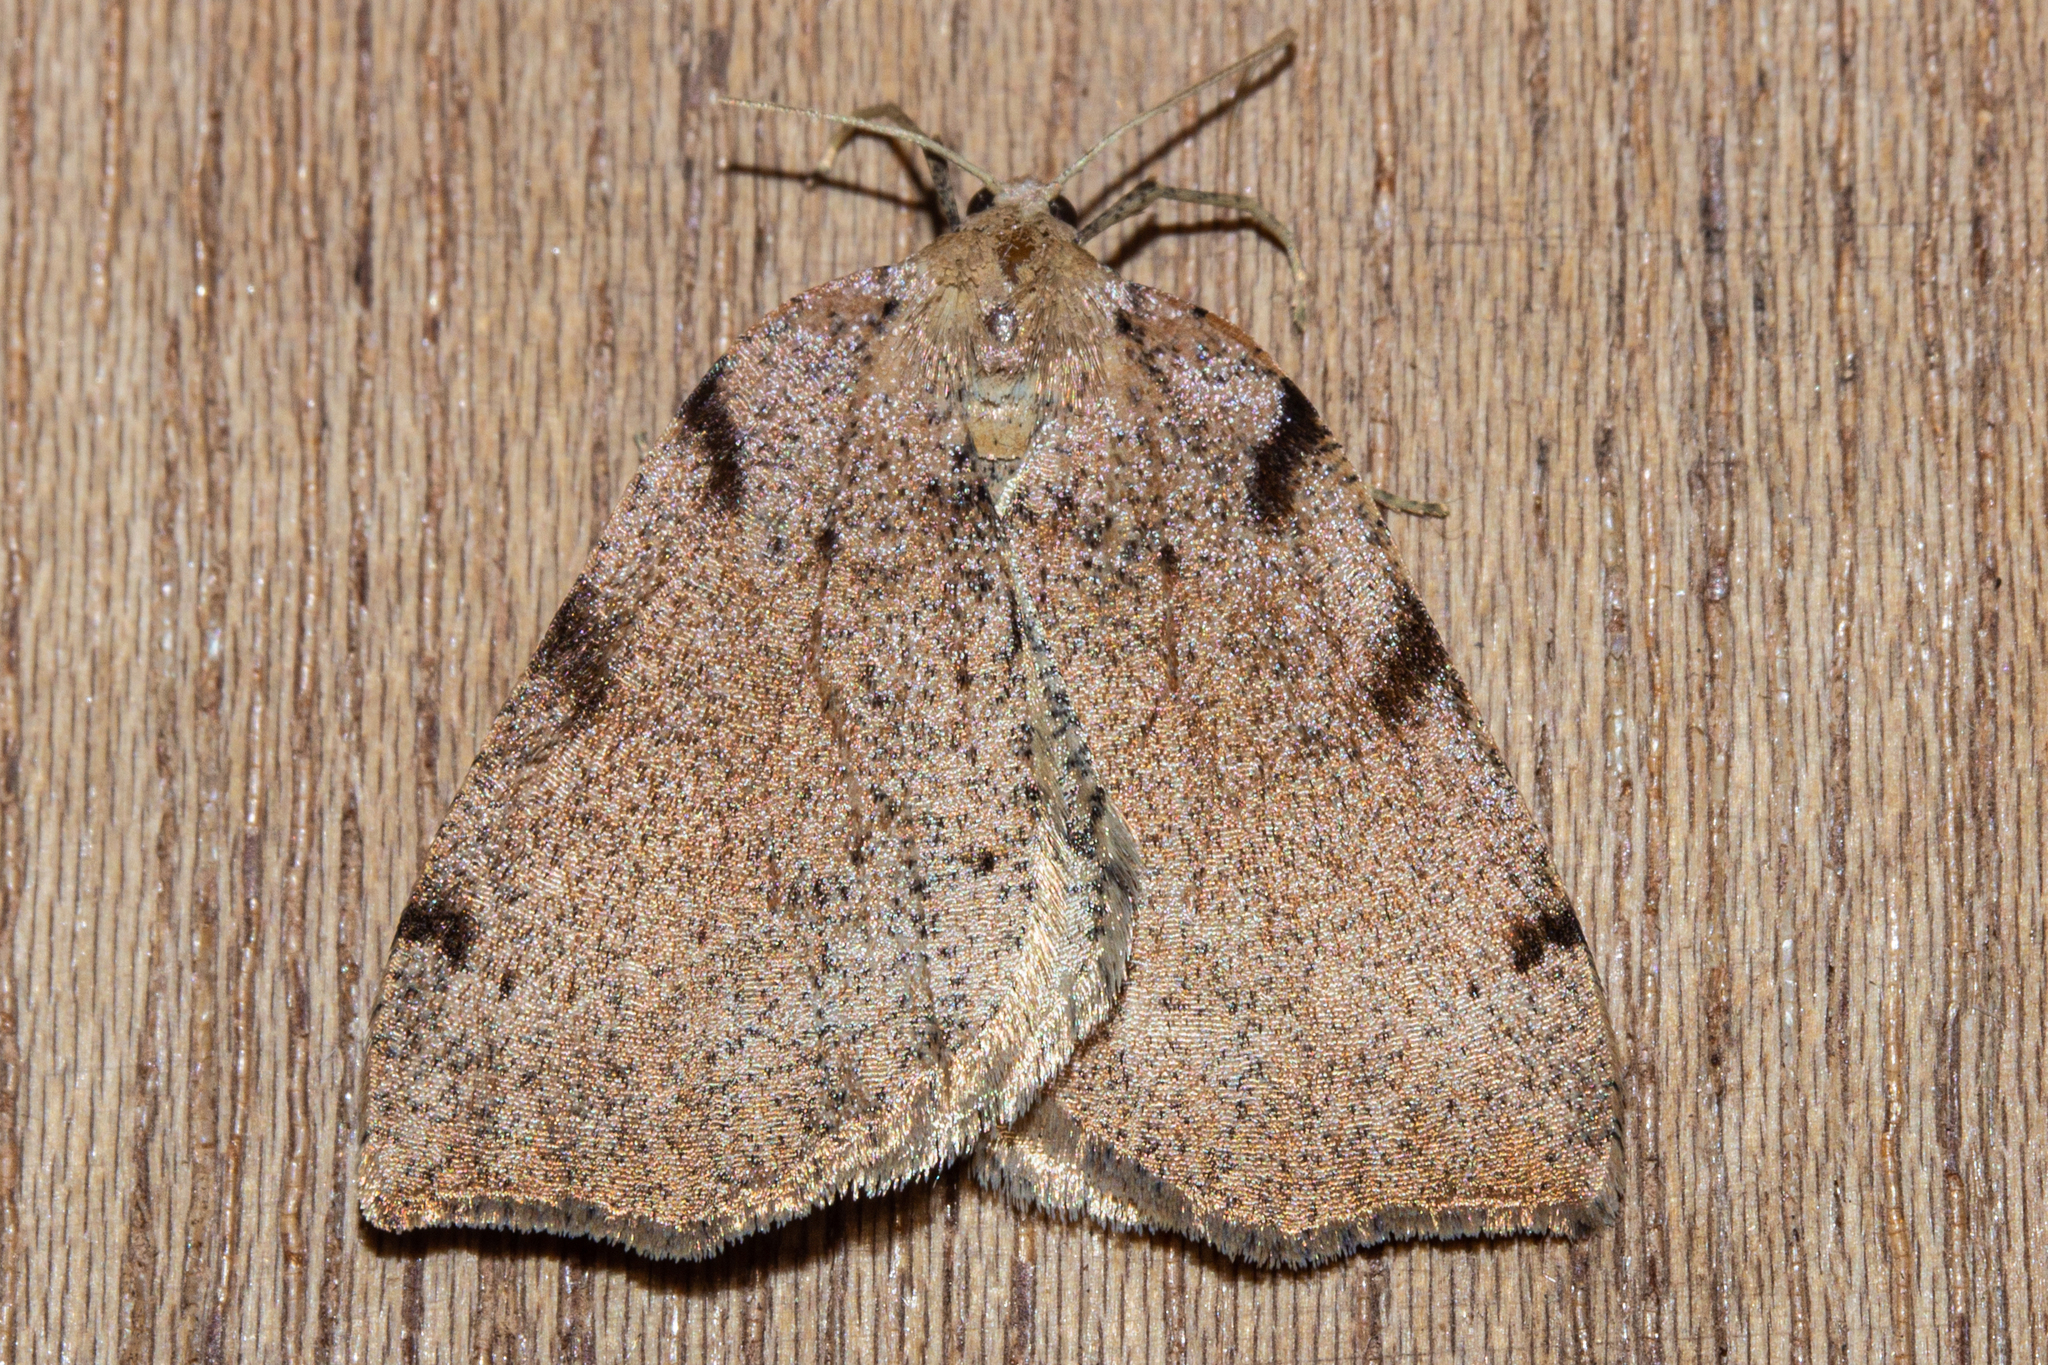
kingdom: Animalia
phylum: Arthropoda
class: Insecta
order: Lepidoptera
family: Geometridae
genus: Sestra
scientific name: Sestra humeraria
